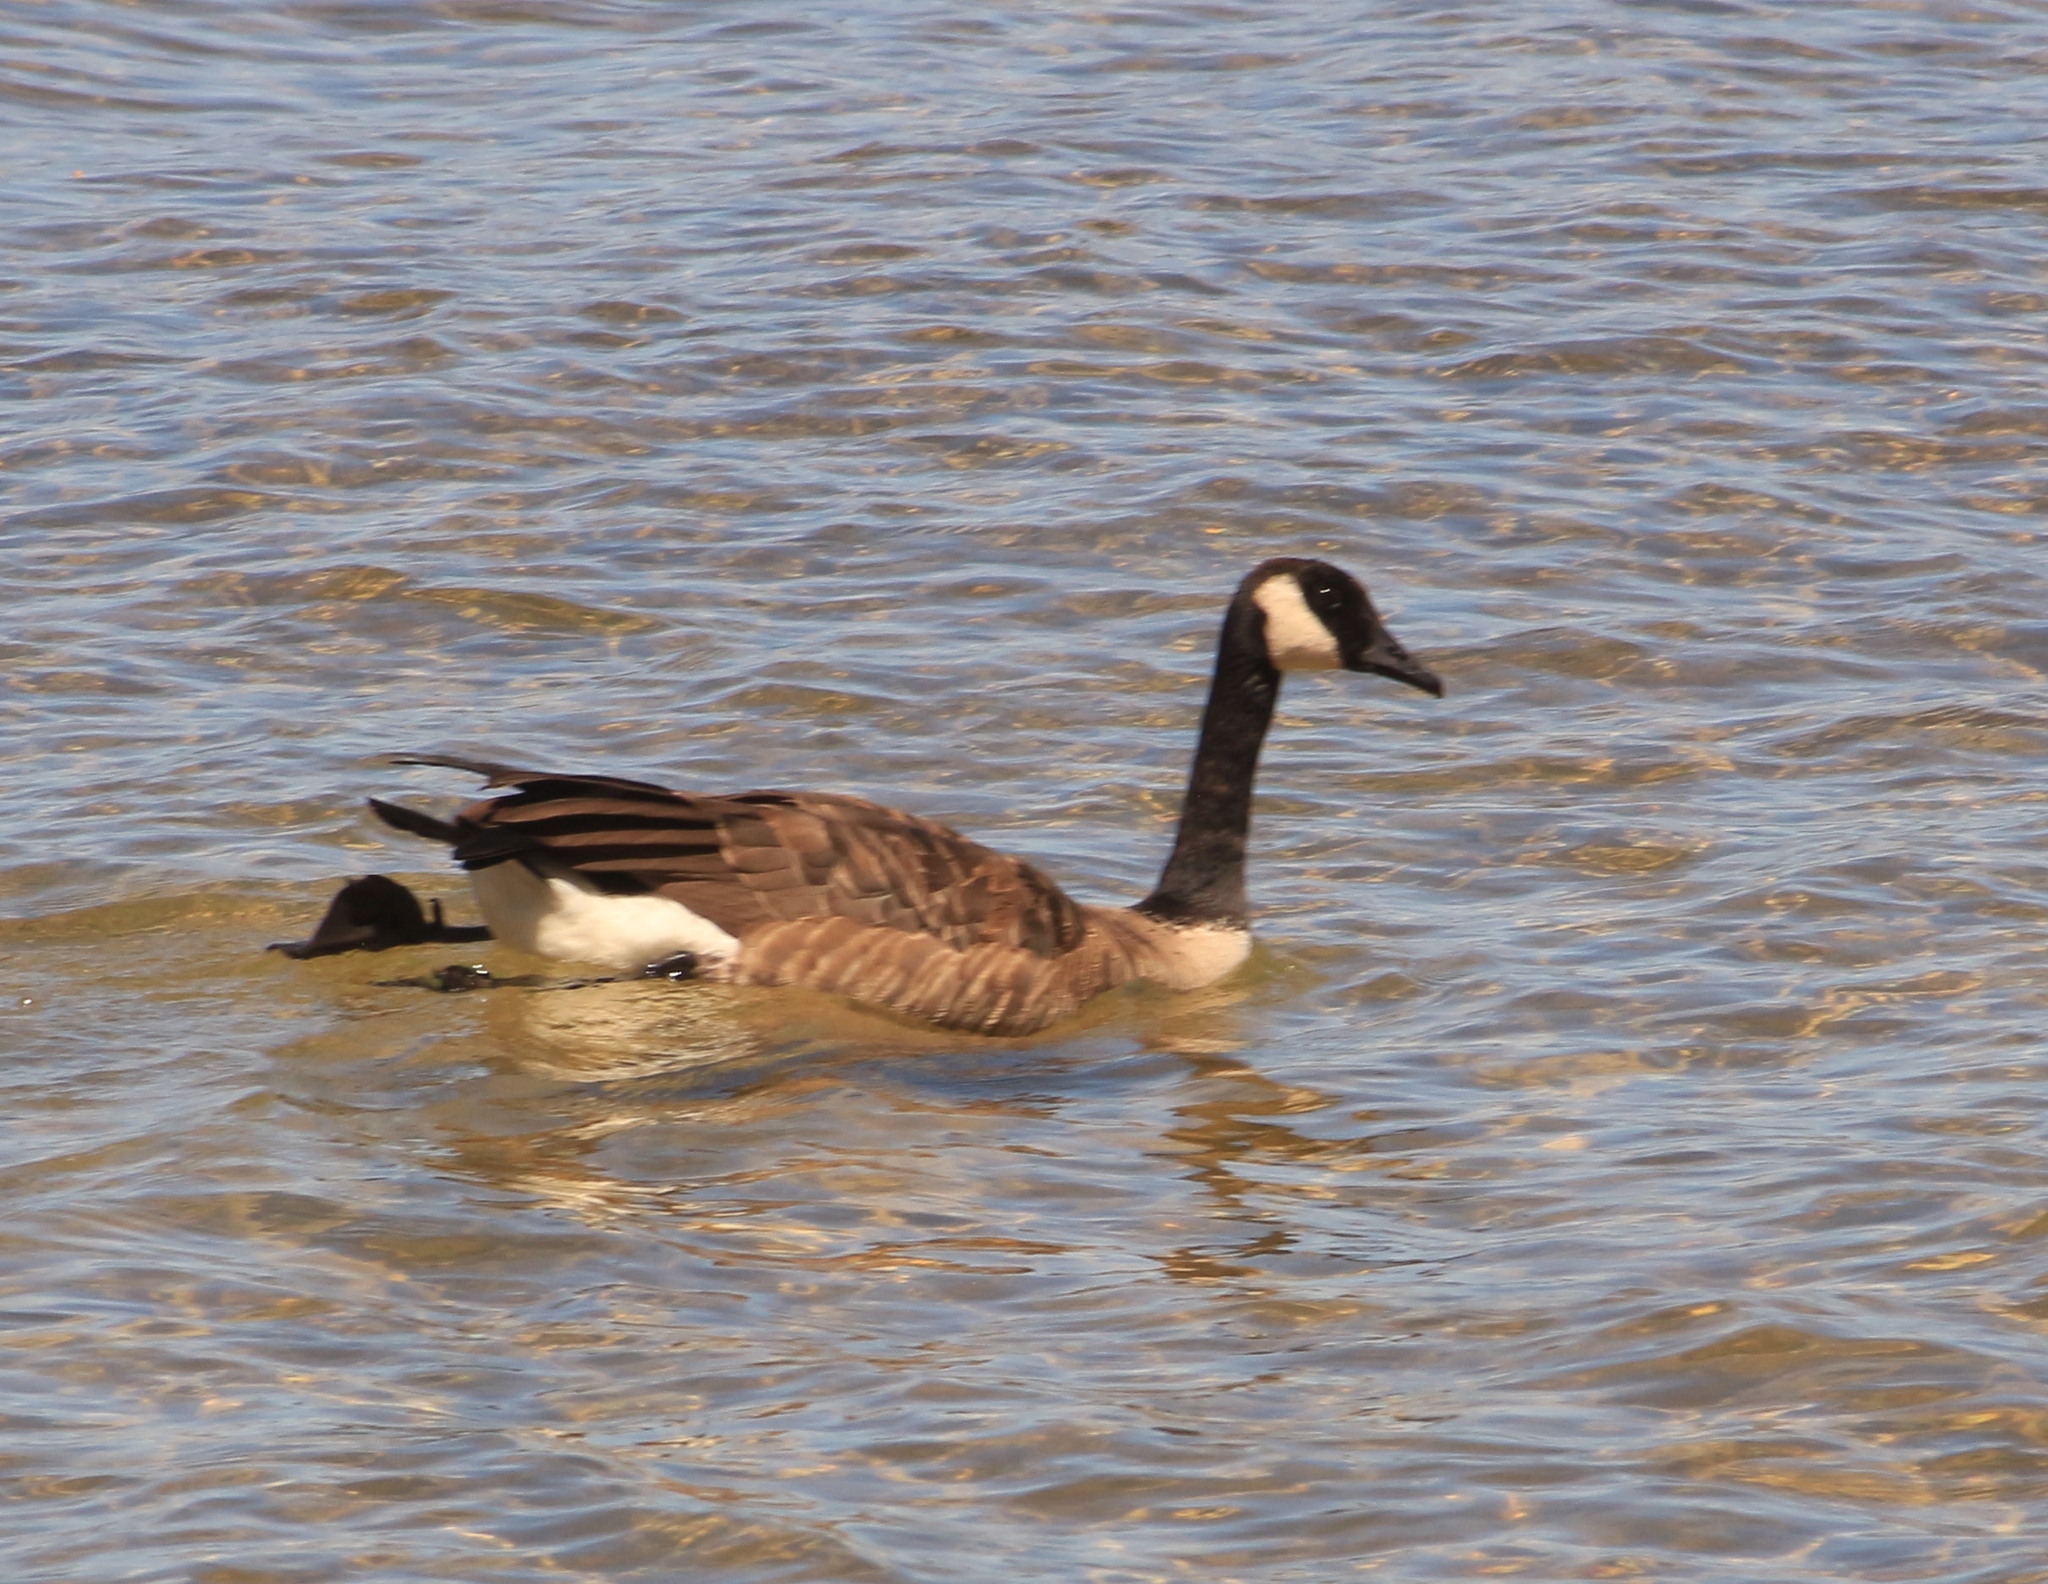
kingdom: Animalia
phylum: Chordata
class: Aves
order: Anseriformes
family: Anatidae
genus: Branta
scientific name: Branta canadensis
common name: Canada goose
